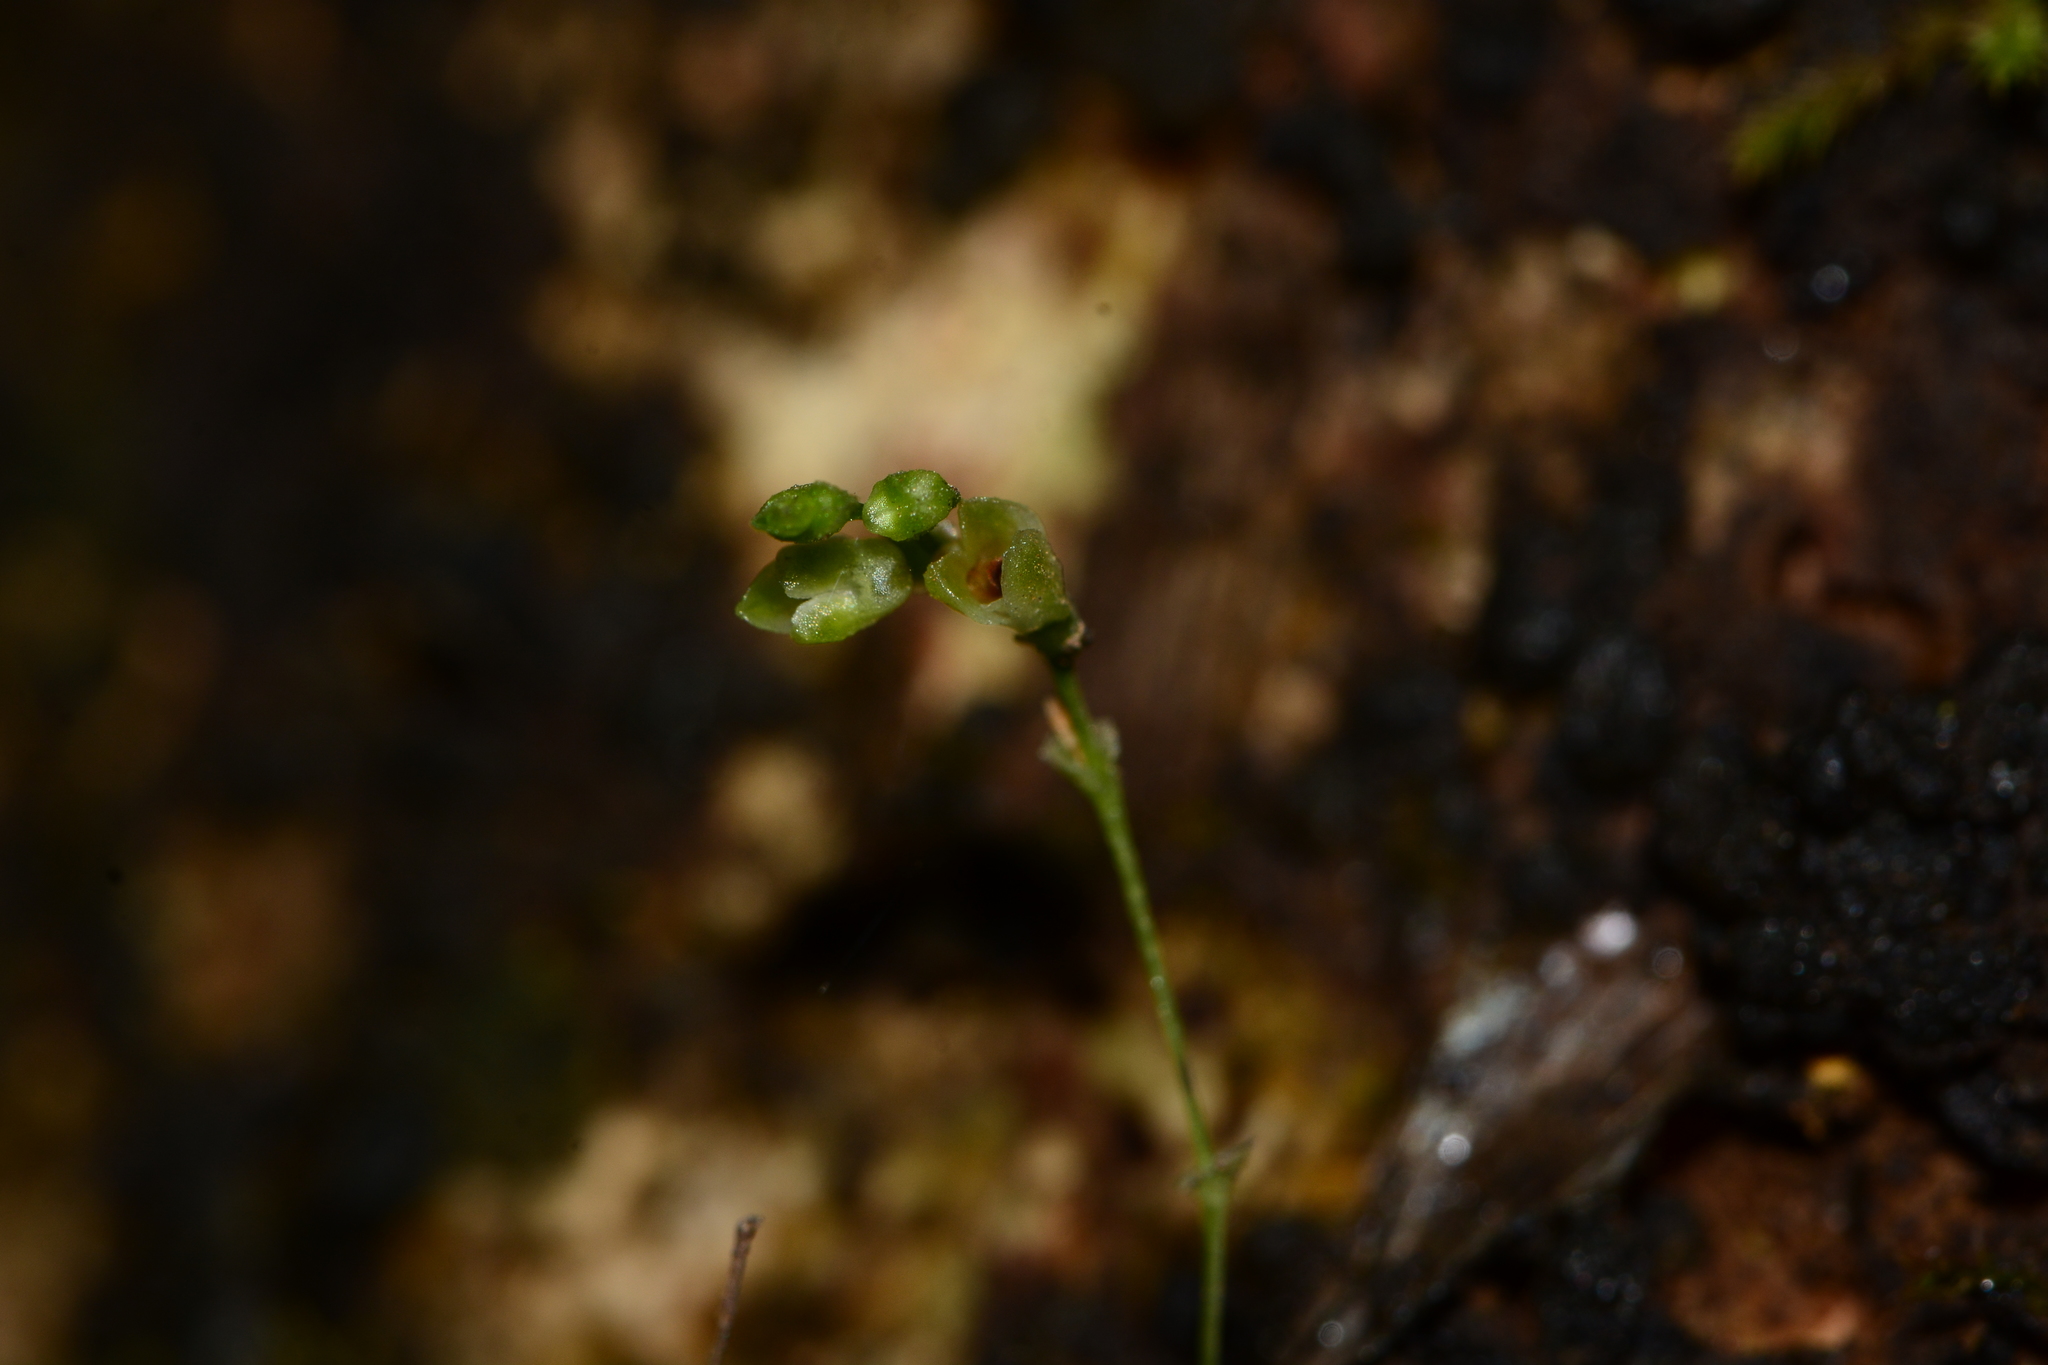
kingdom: Plantae
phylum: Tracheophyta
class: Liliopsida
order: Asparagales
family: Orchidaceae
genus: Porpax
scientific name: Porpax exilis
